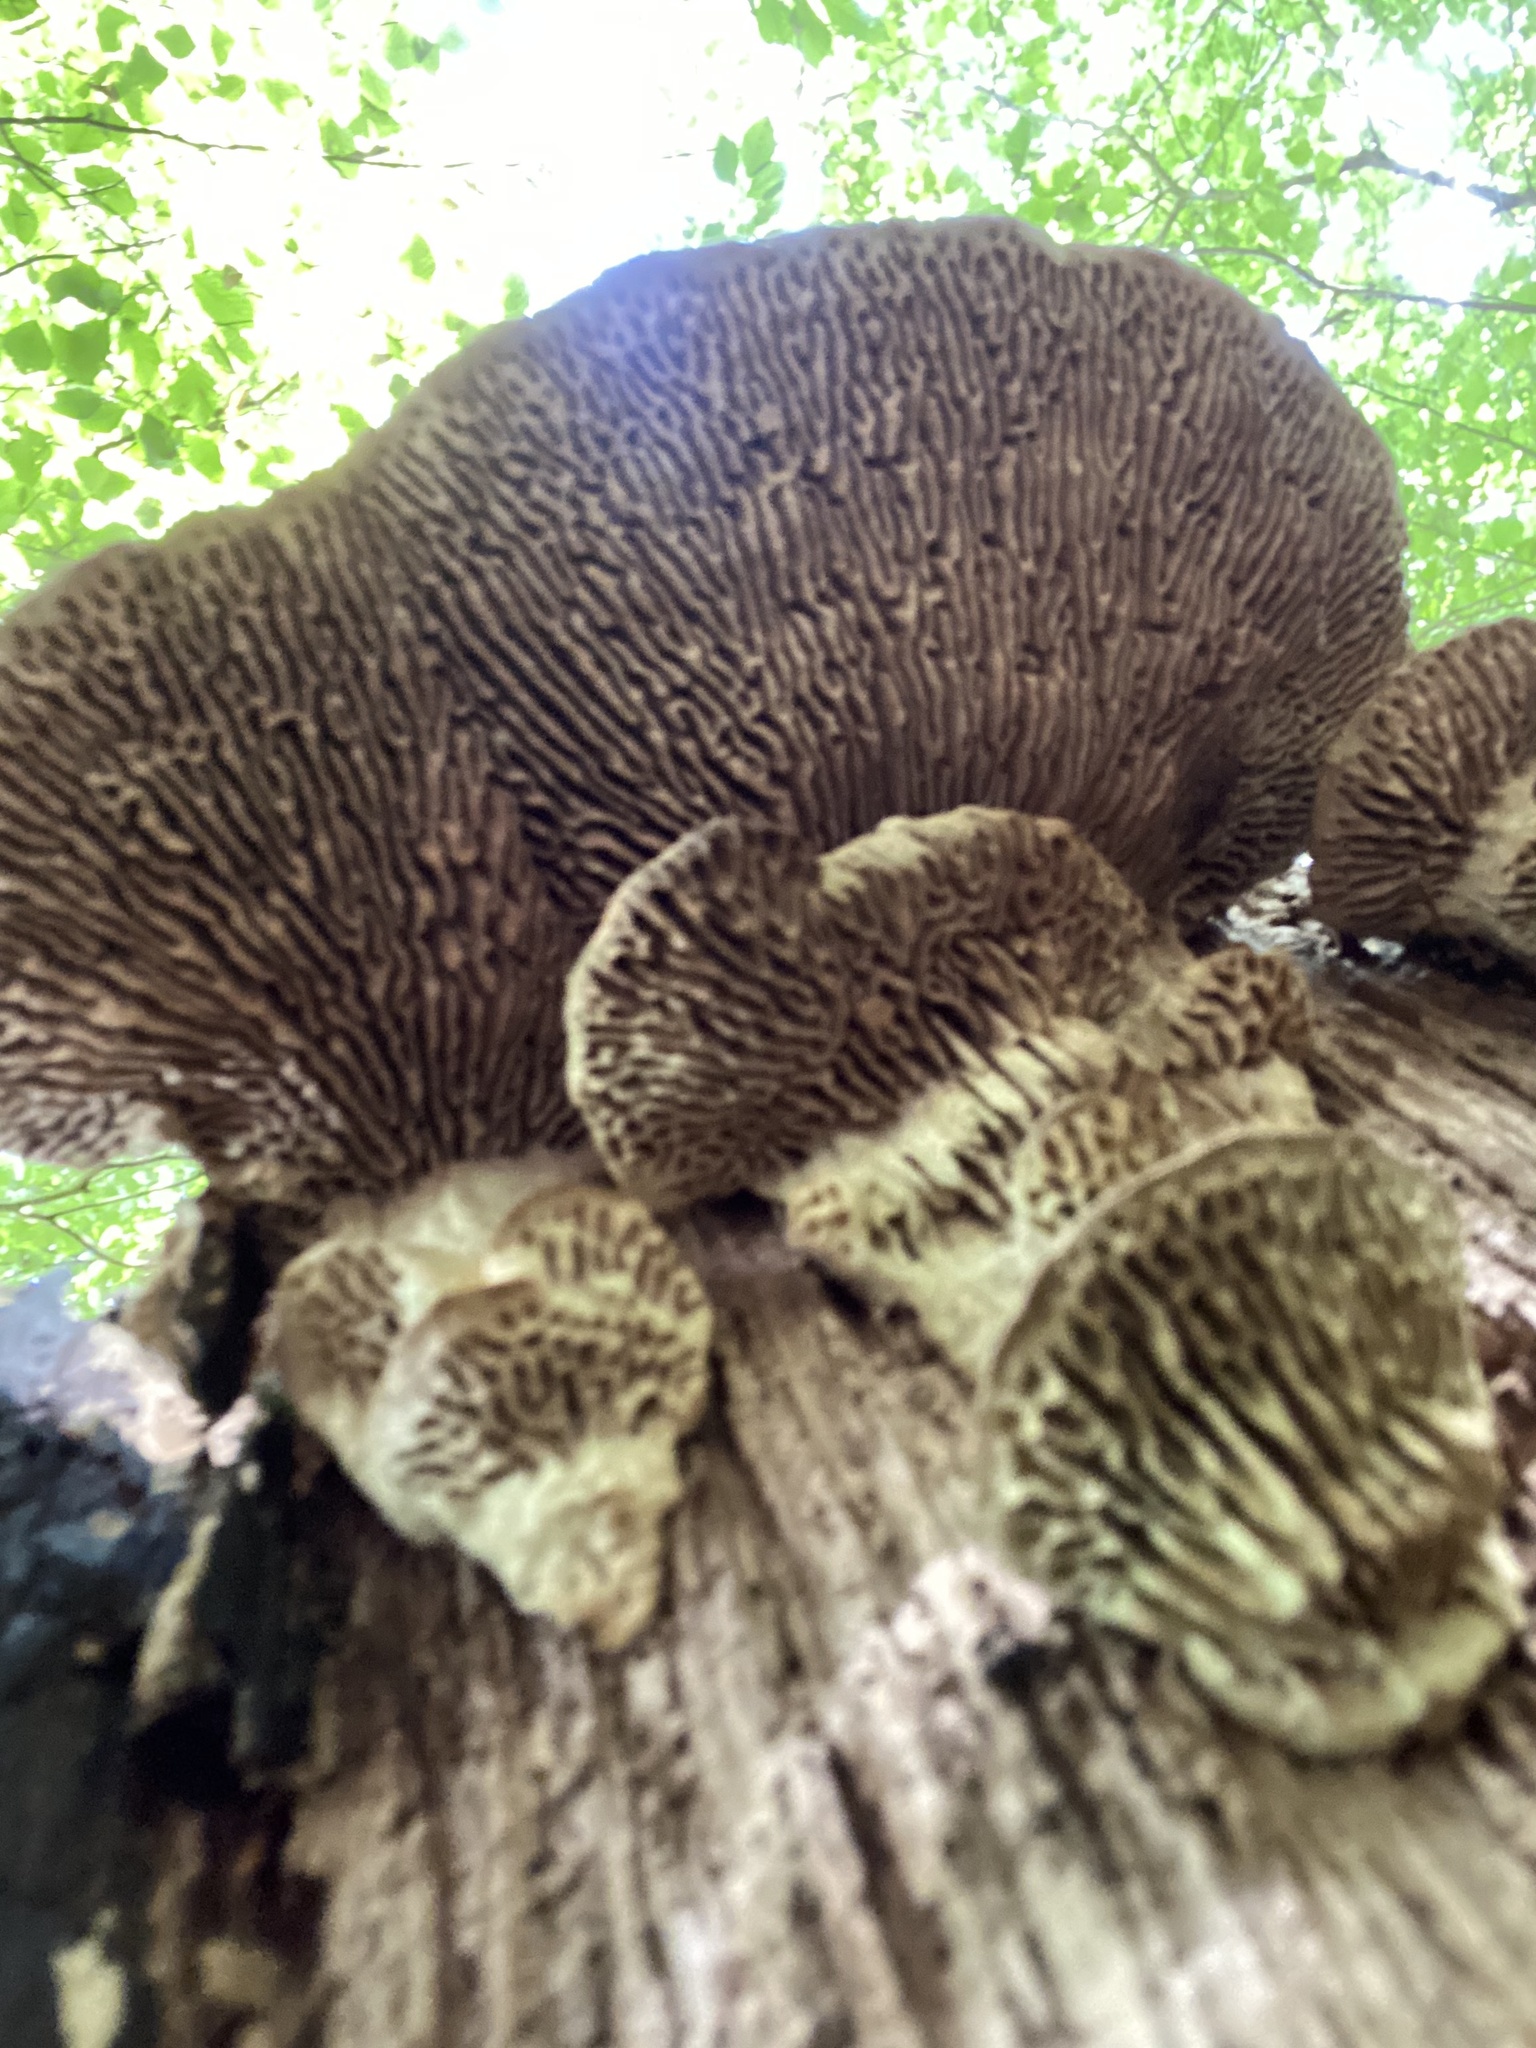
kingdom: Fungi
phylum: Basidiomycota
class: Agaricomycetes
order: Polyporales
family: Fomitopsidaceae
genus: Fomitopsis
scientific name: Fomitopsis
